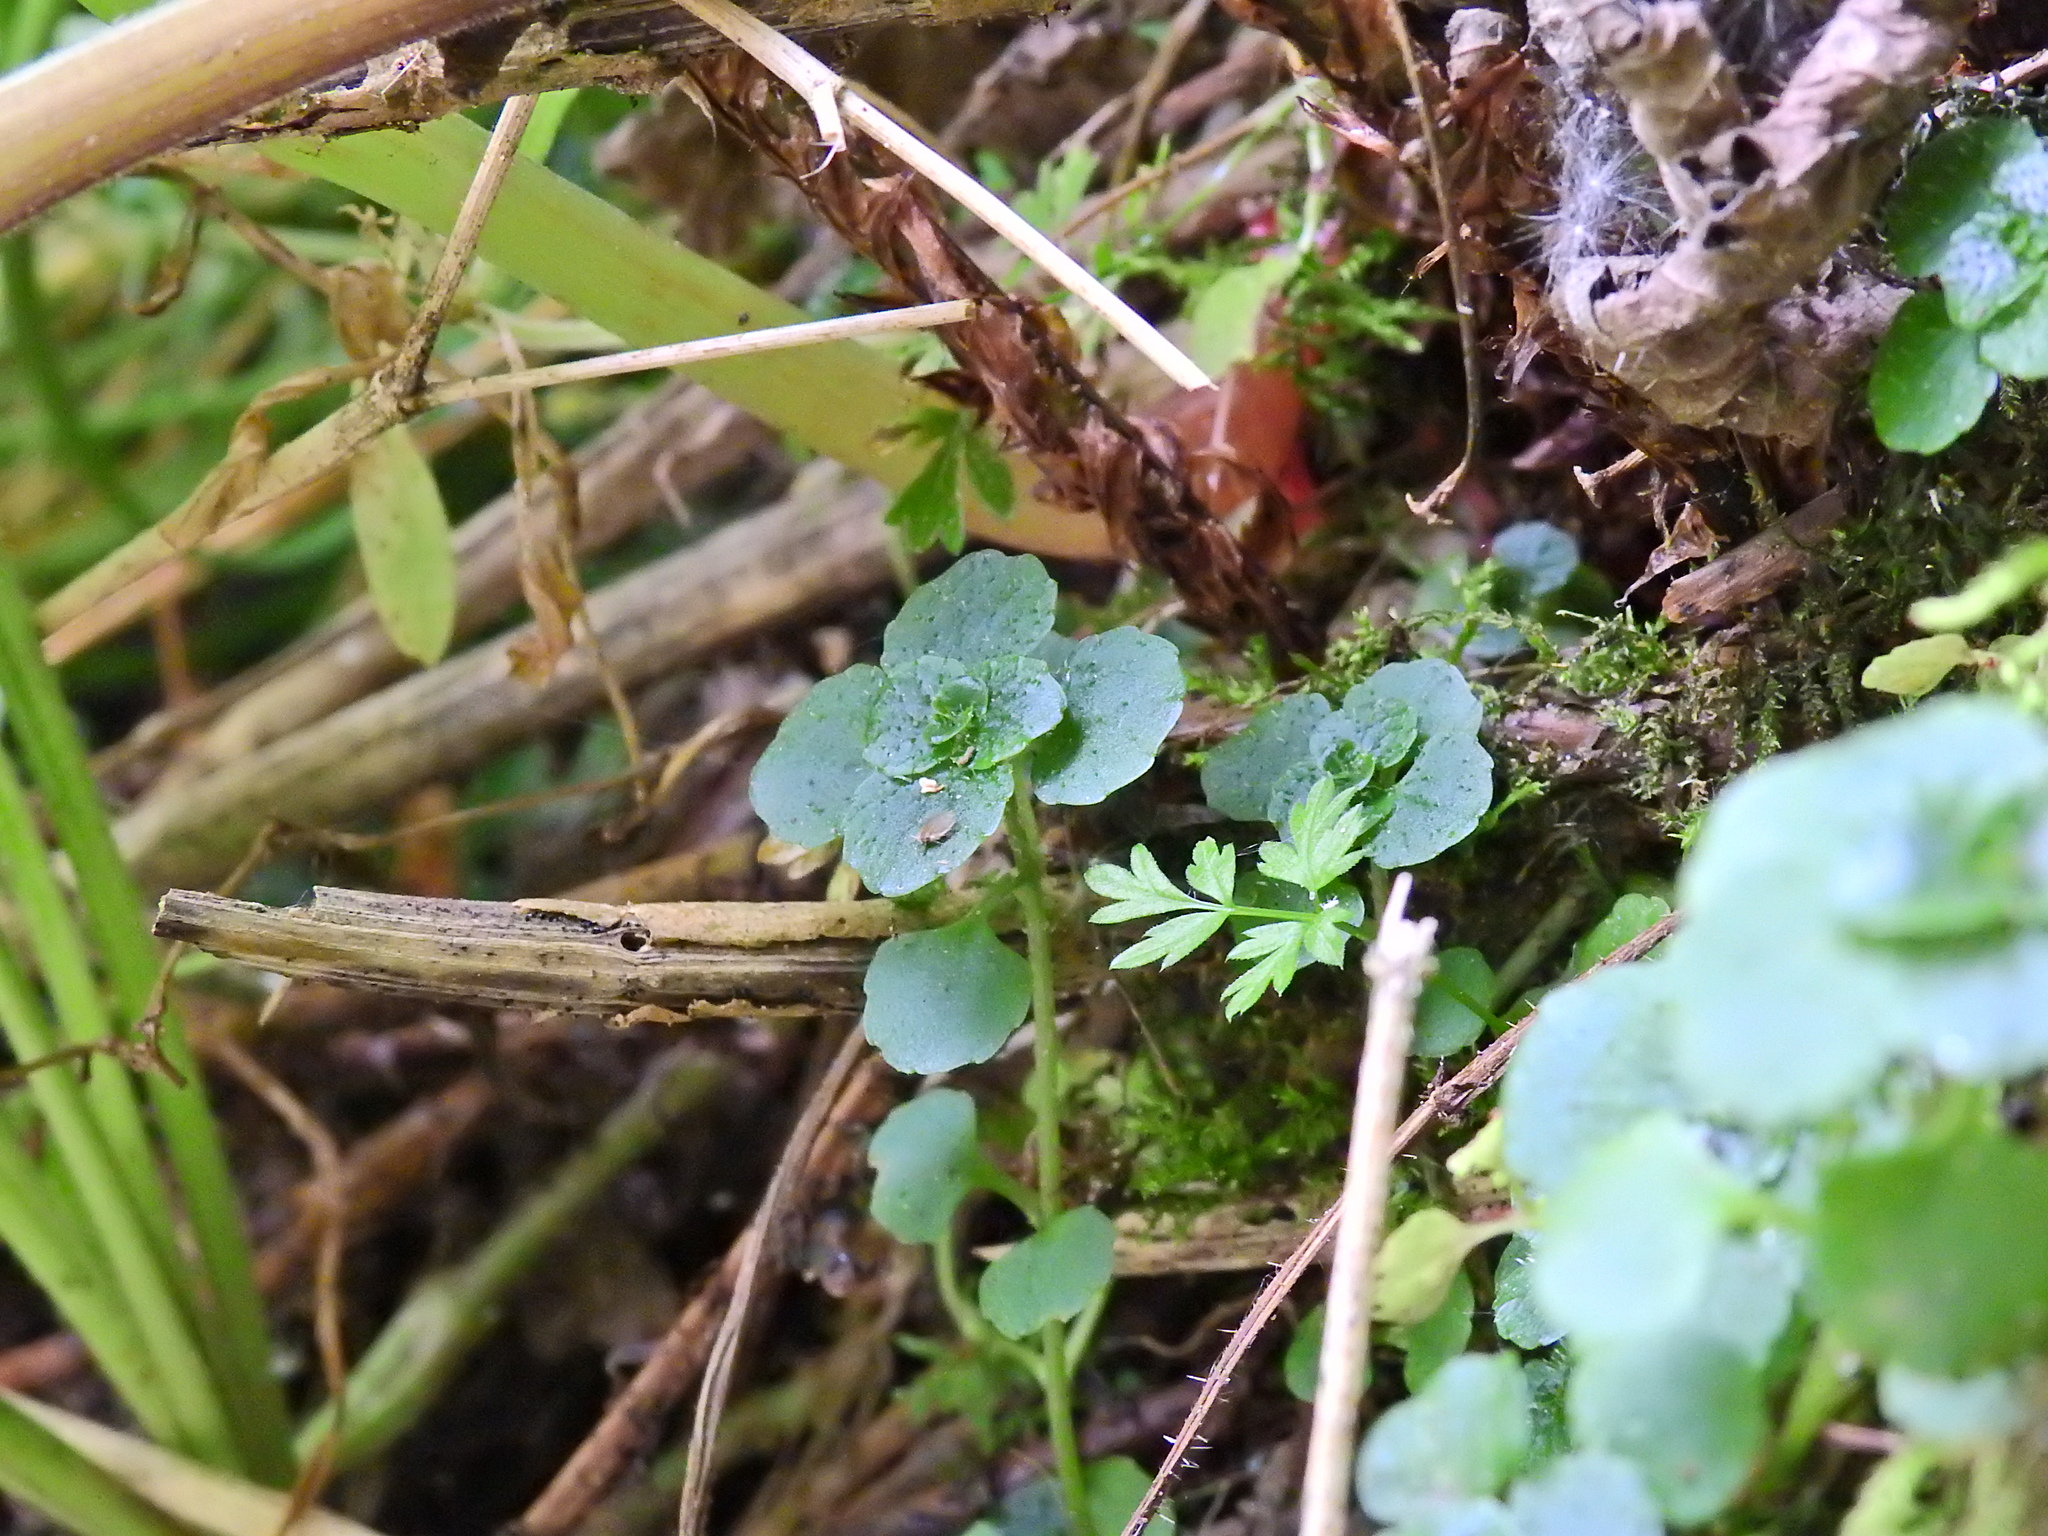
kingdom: Plantae
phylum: Tracheophyta
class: Magnoliopsida
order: Saxifragales
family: Saxifragaceae
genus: Chrysosplenium
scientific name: Chrysosplenium oppositifolium
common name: Opposite-leaved golden-saxifrage
